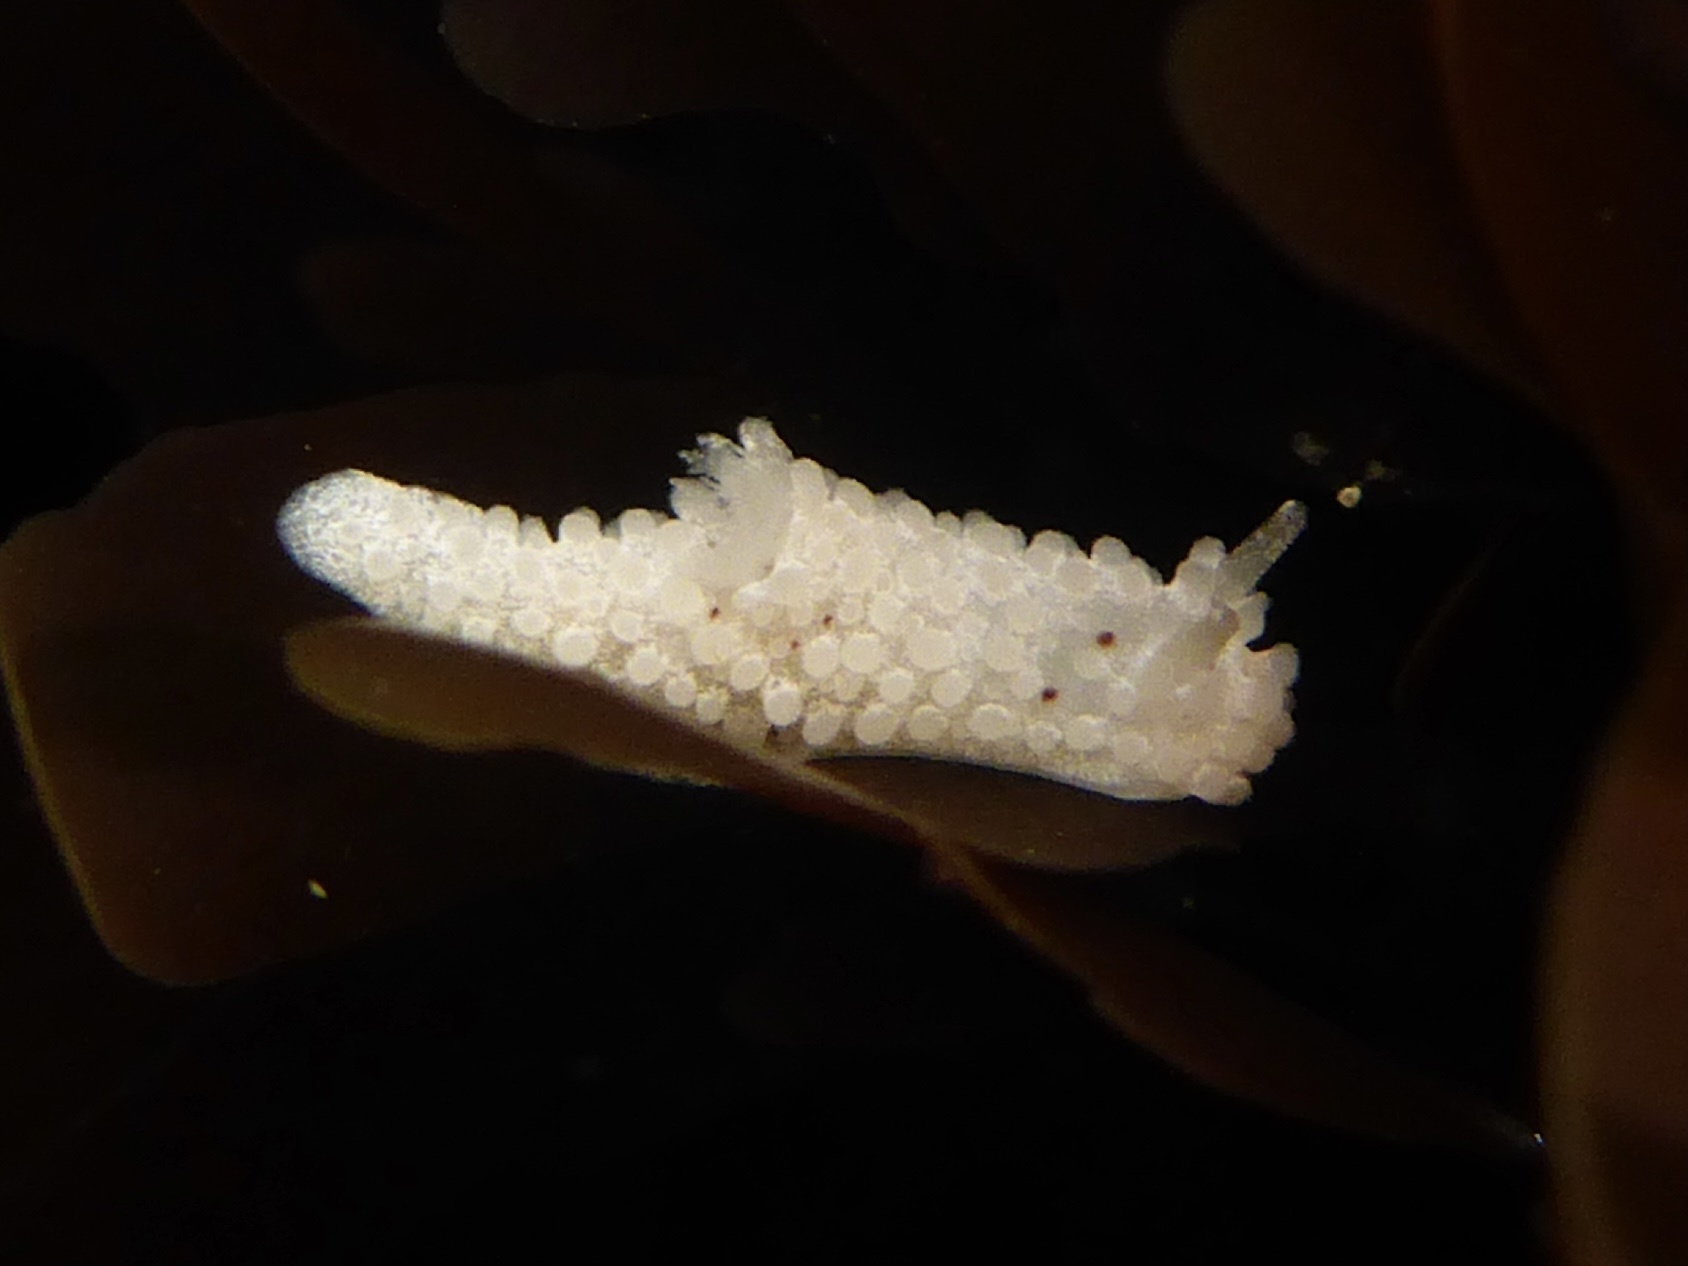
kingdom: Animalia
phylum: Mollusca
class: Gastropoda
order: Nudibranchia
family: Aegiridae
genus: Aegires
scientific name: Aegires albopunctatus
